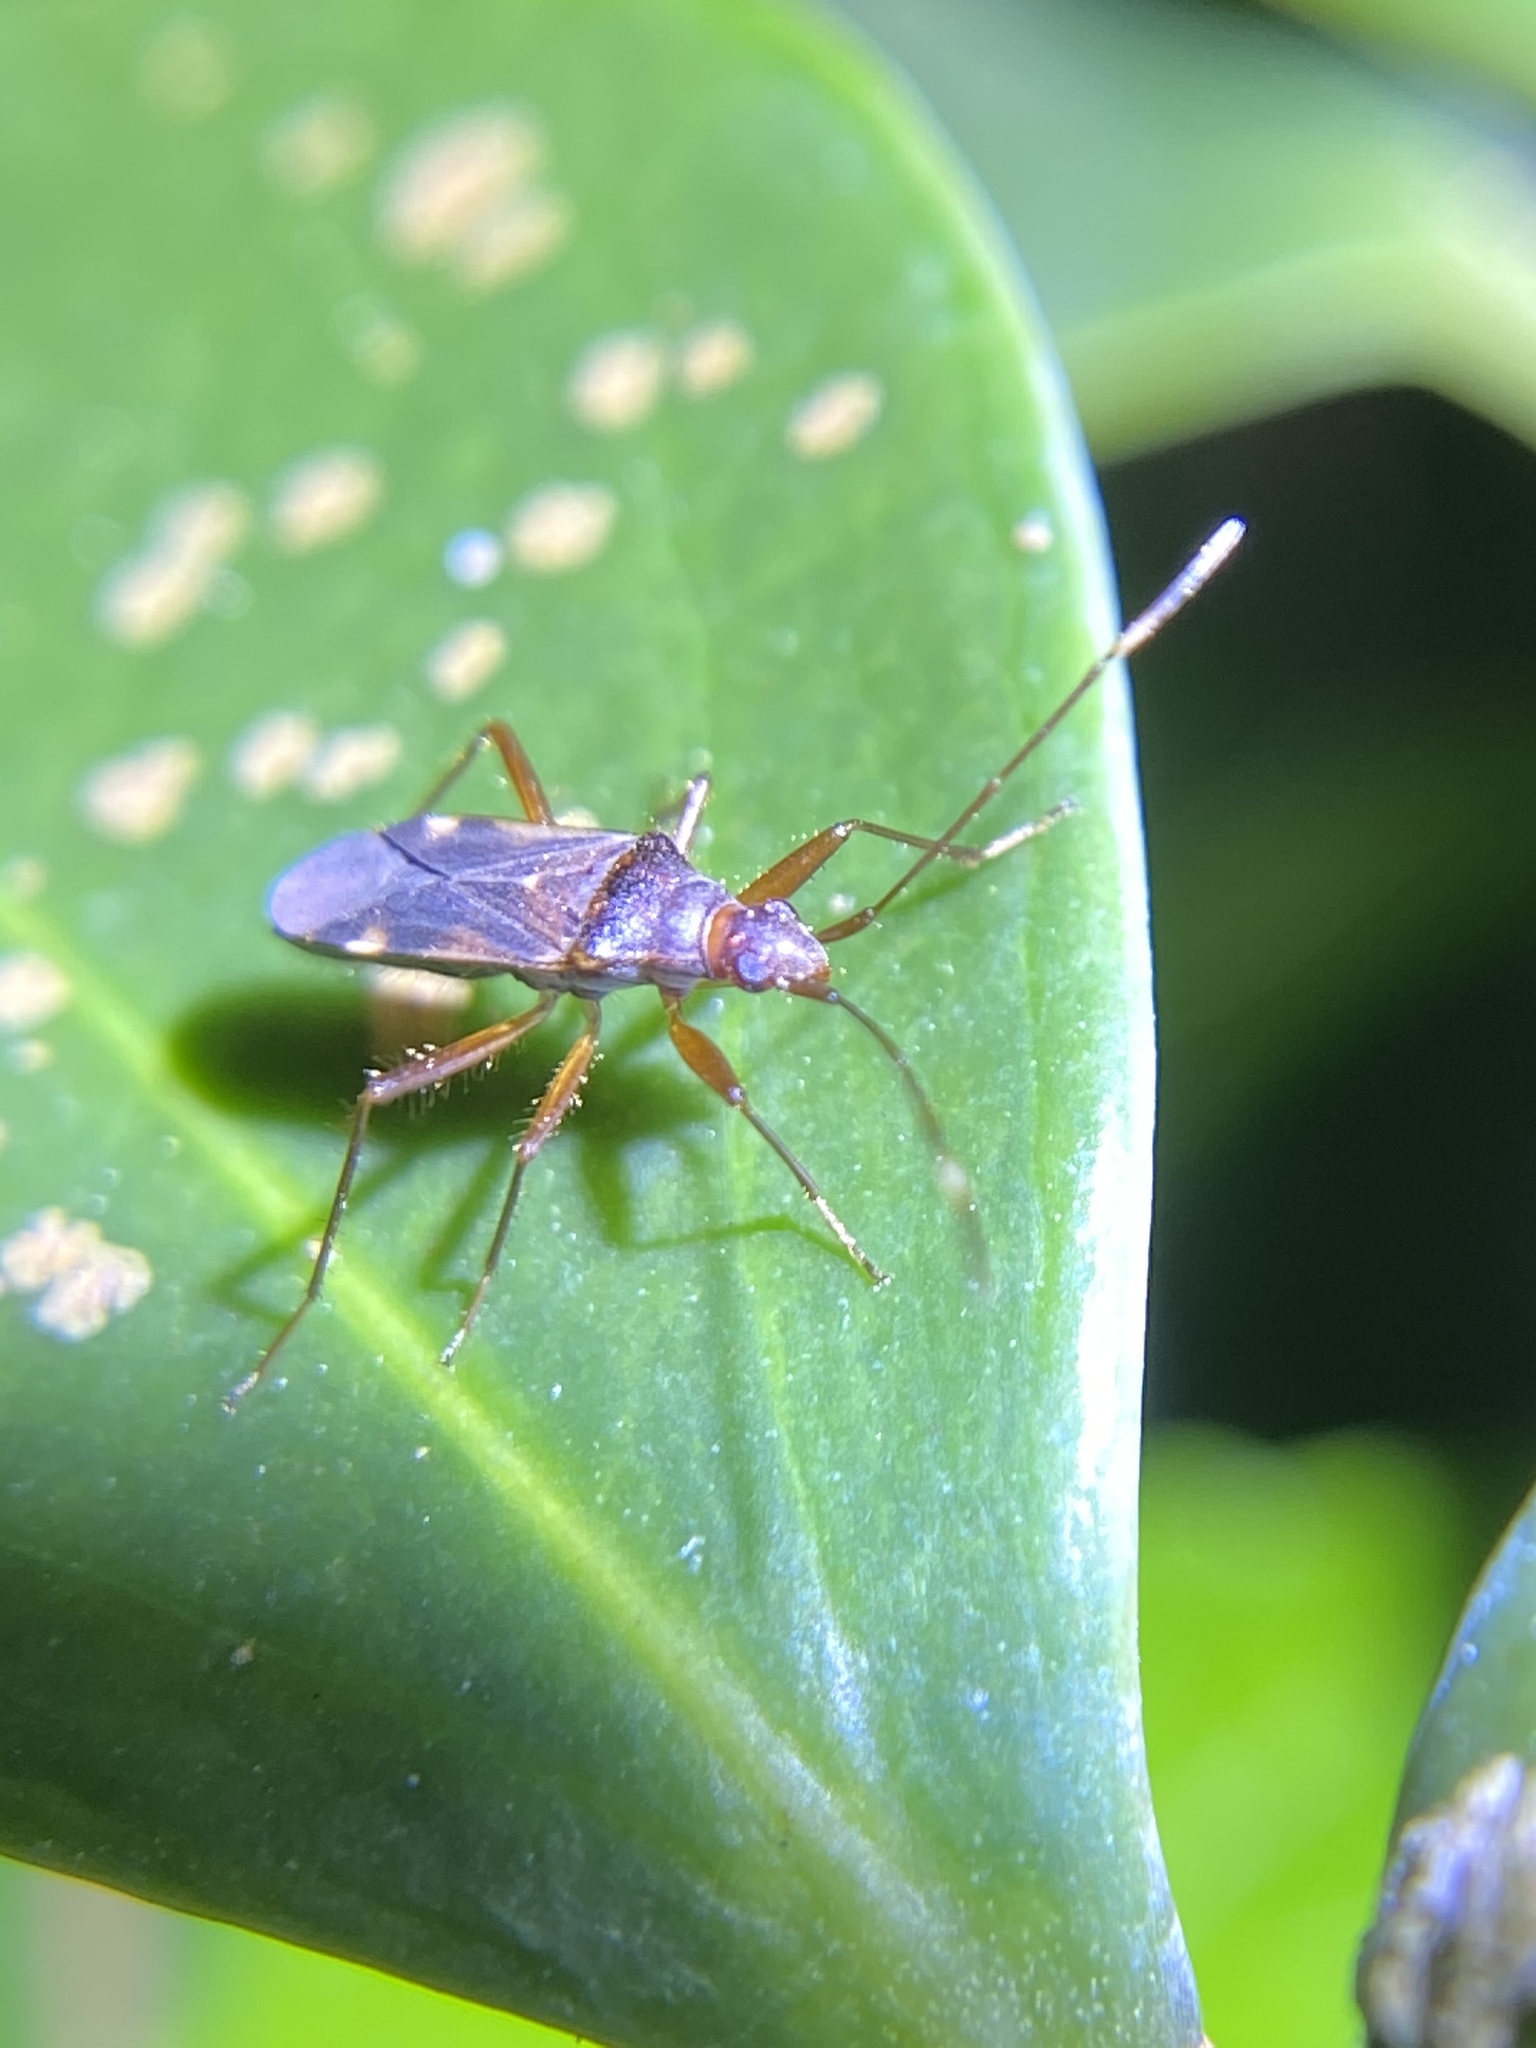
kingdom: Animalia
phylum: Arthropoda
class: Insecta
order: Hemiptera
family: Rhyparochromidae
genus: Ozophora
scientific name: Ozophora trinotata
